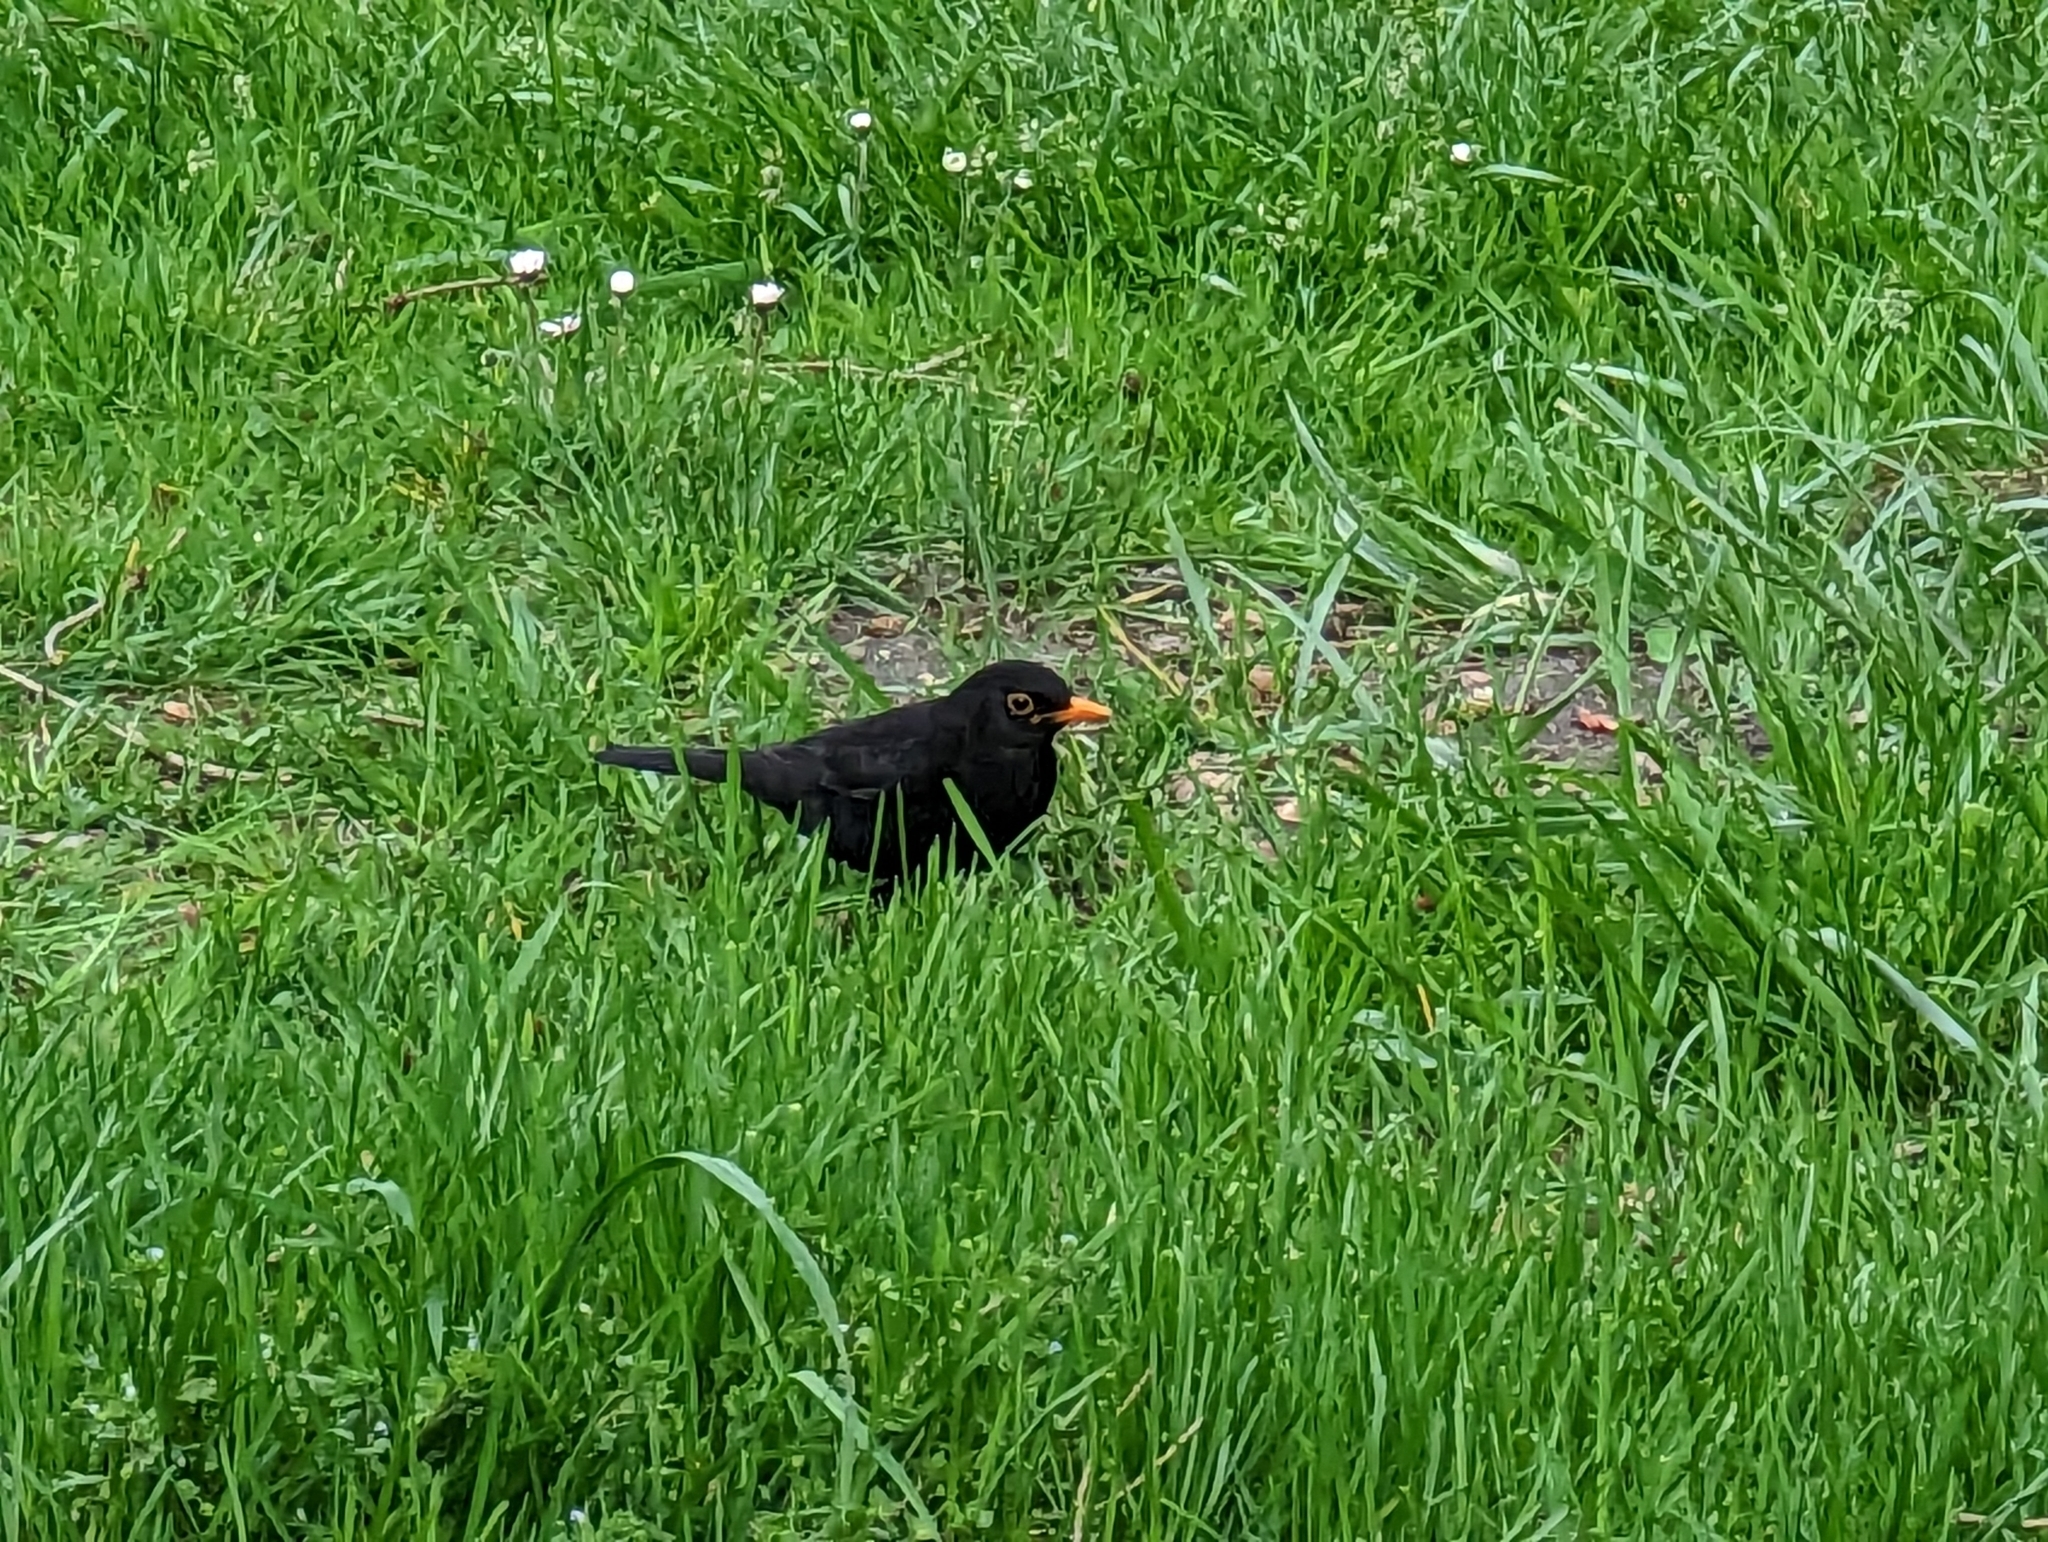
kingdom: Animalia
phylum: Chordata
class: Aves
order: Passeriformes
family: Turdidae
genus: Turdus
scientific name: Turdus merula
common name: Common blackbird
